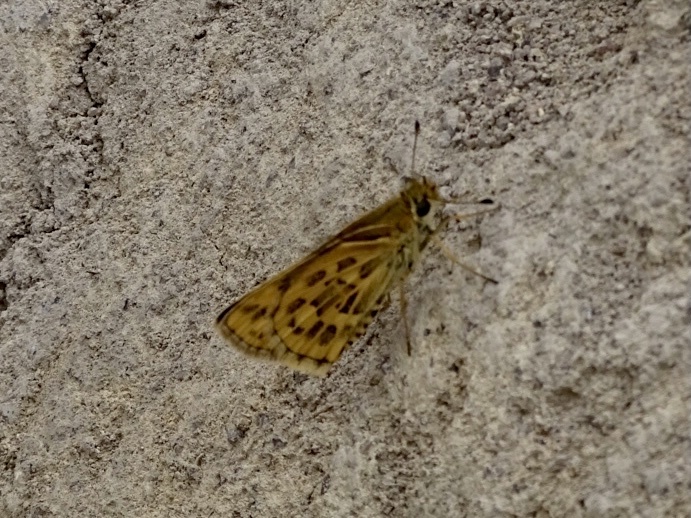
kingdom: Animalia
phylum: Arthropoda
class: Insecta
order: Lepidoptera
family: Hesperiidae
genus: Taractrocera
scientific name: Taractrocera ceramas
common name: Tamil grass dart
